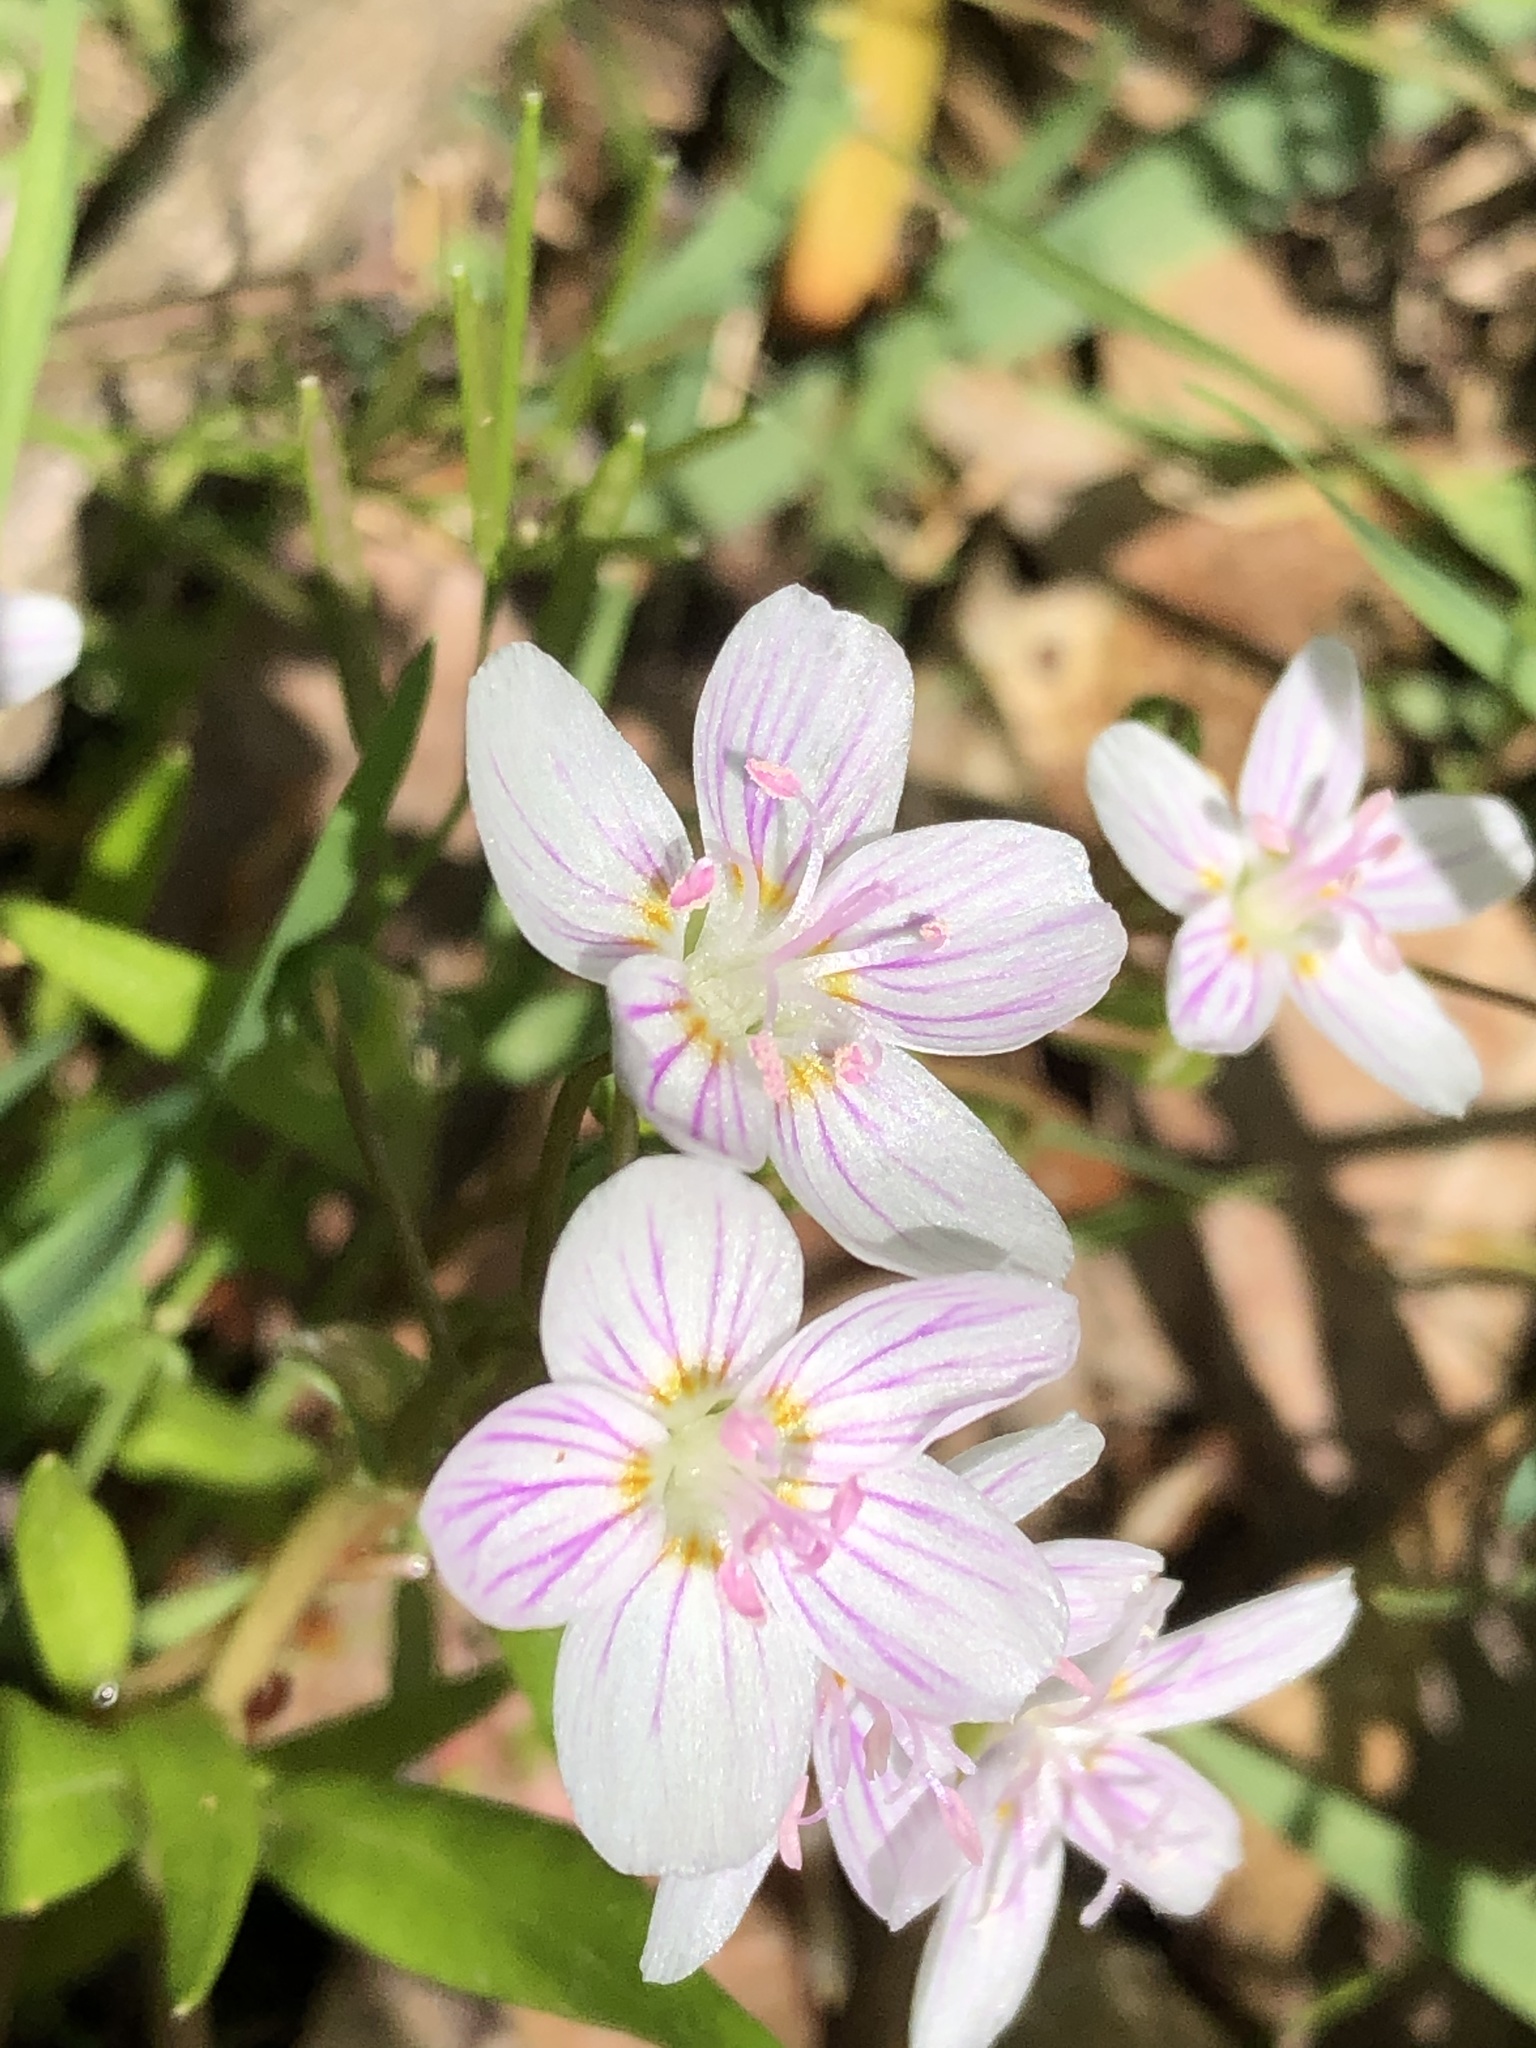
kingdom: Plantae
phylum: Tracheophyta
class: Magnoliopsida
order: Caryophyllales
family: Montiaceae
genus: Claytonia
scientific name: Claytonia virginica
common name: Virginia springbeauty
